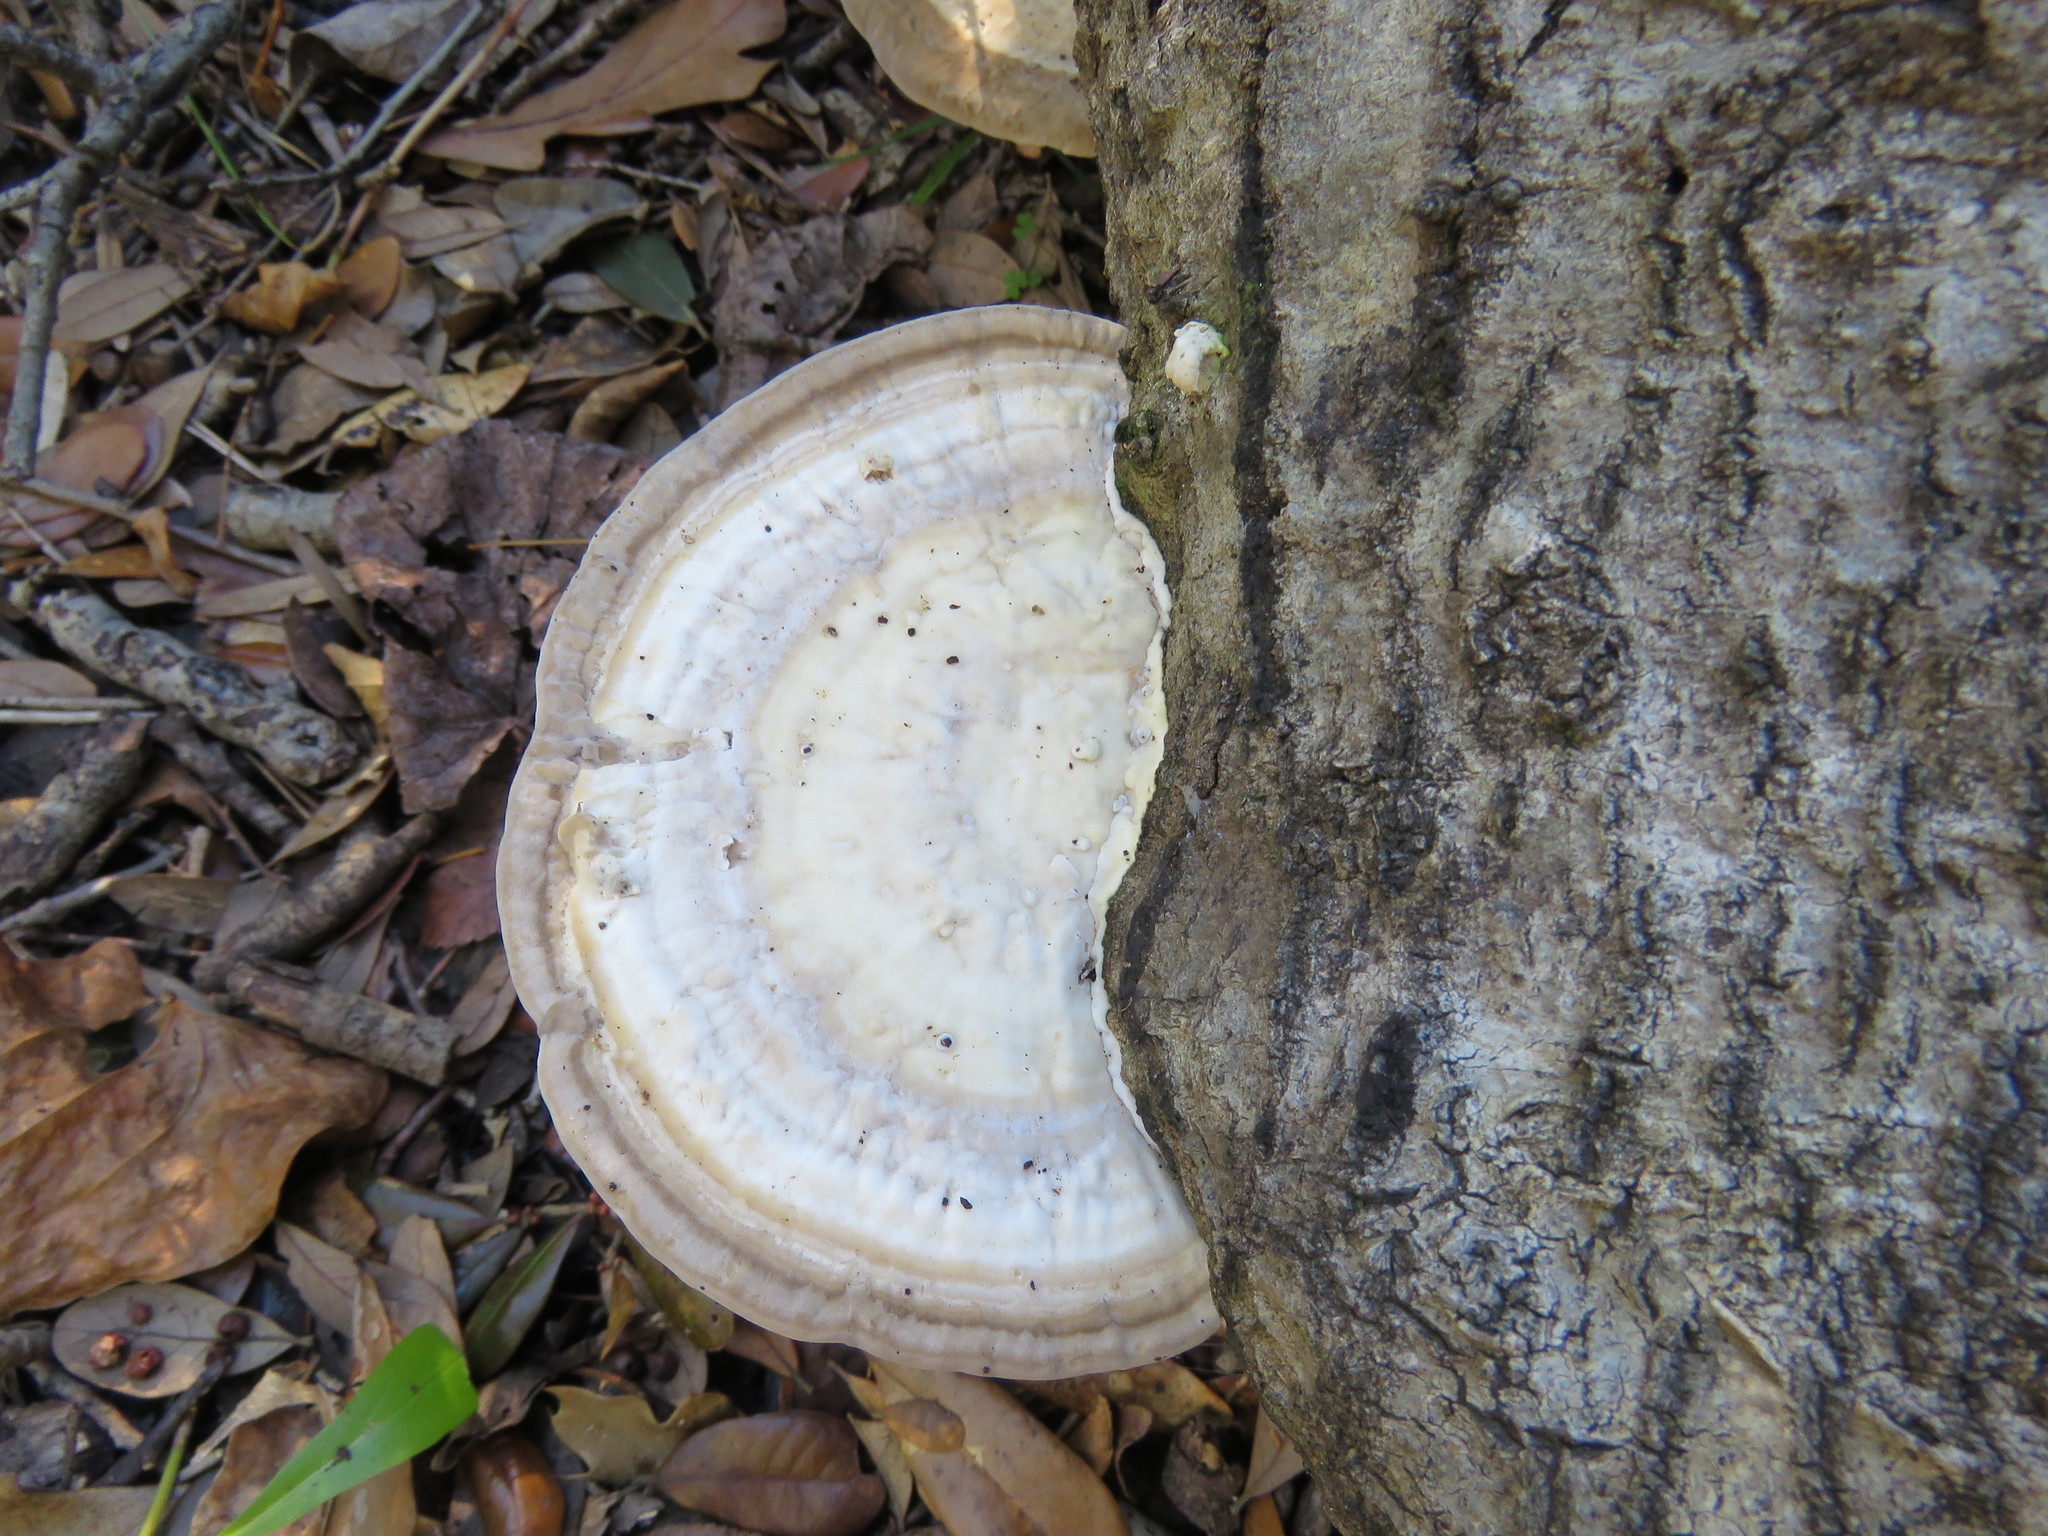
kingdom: Fungi
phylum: Basidiomycota
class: Agaricomycetes
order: Polyporales
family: Polyporaceae
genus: Trametes
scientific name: Trametes lactinea
